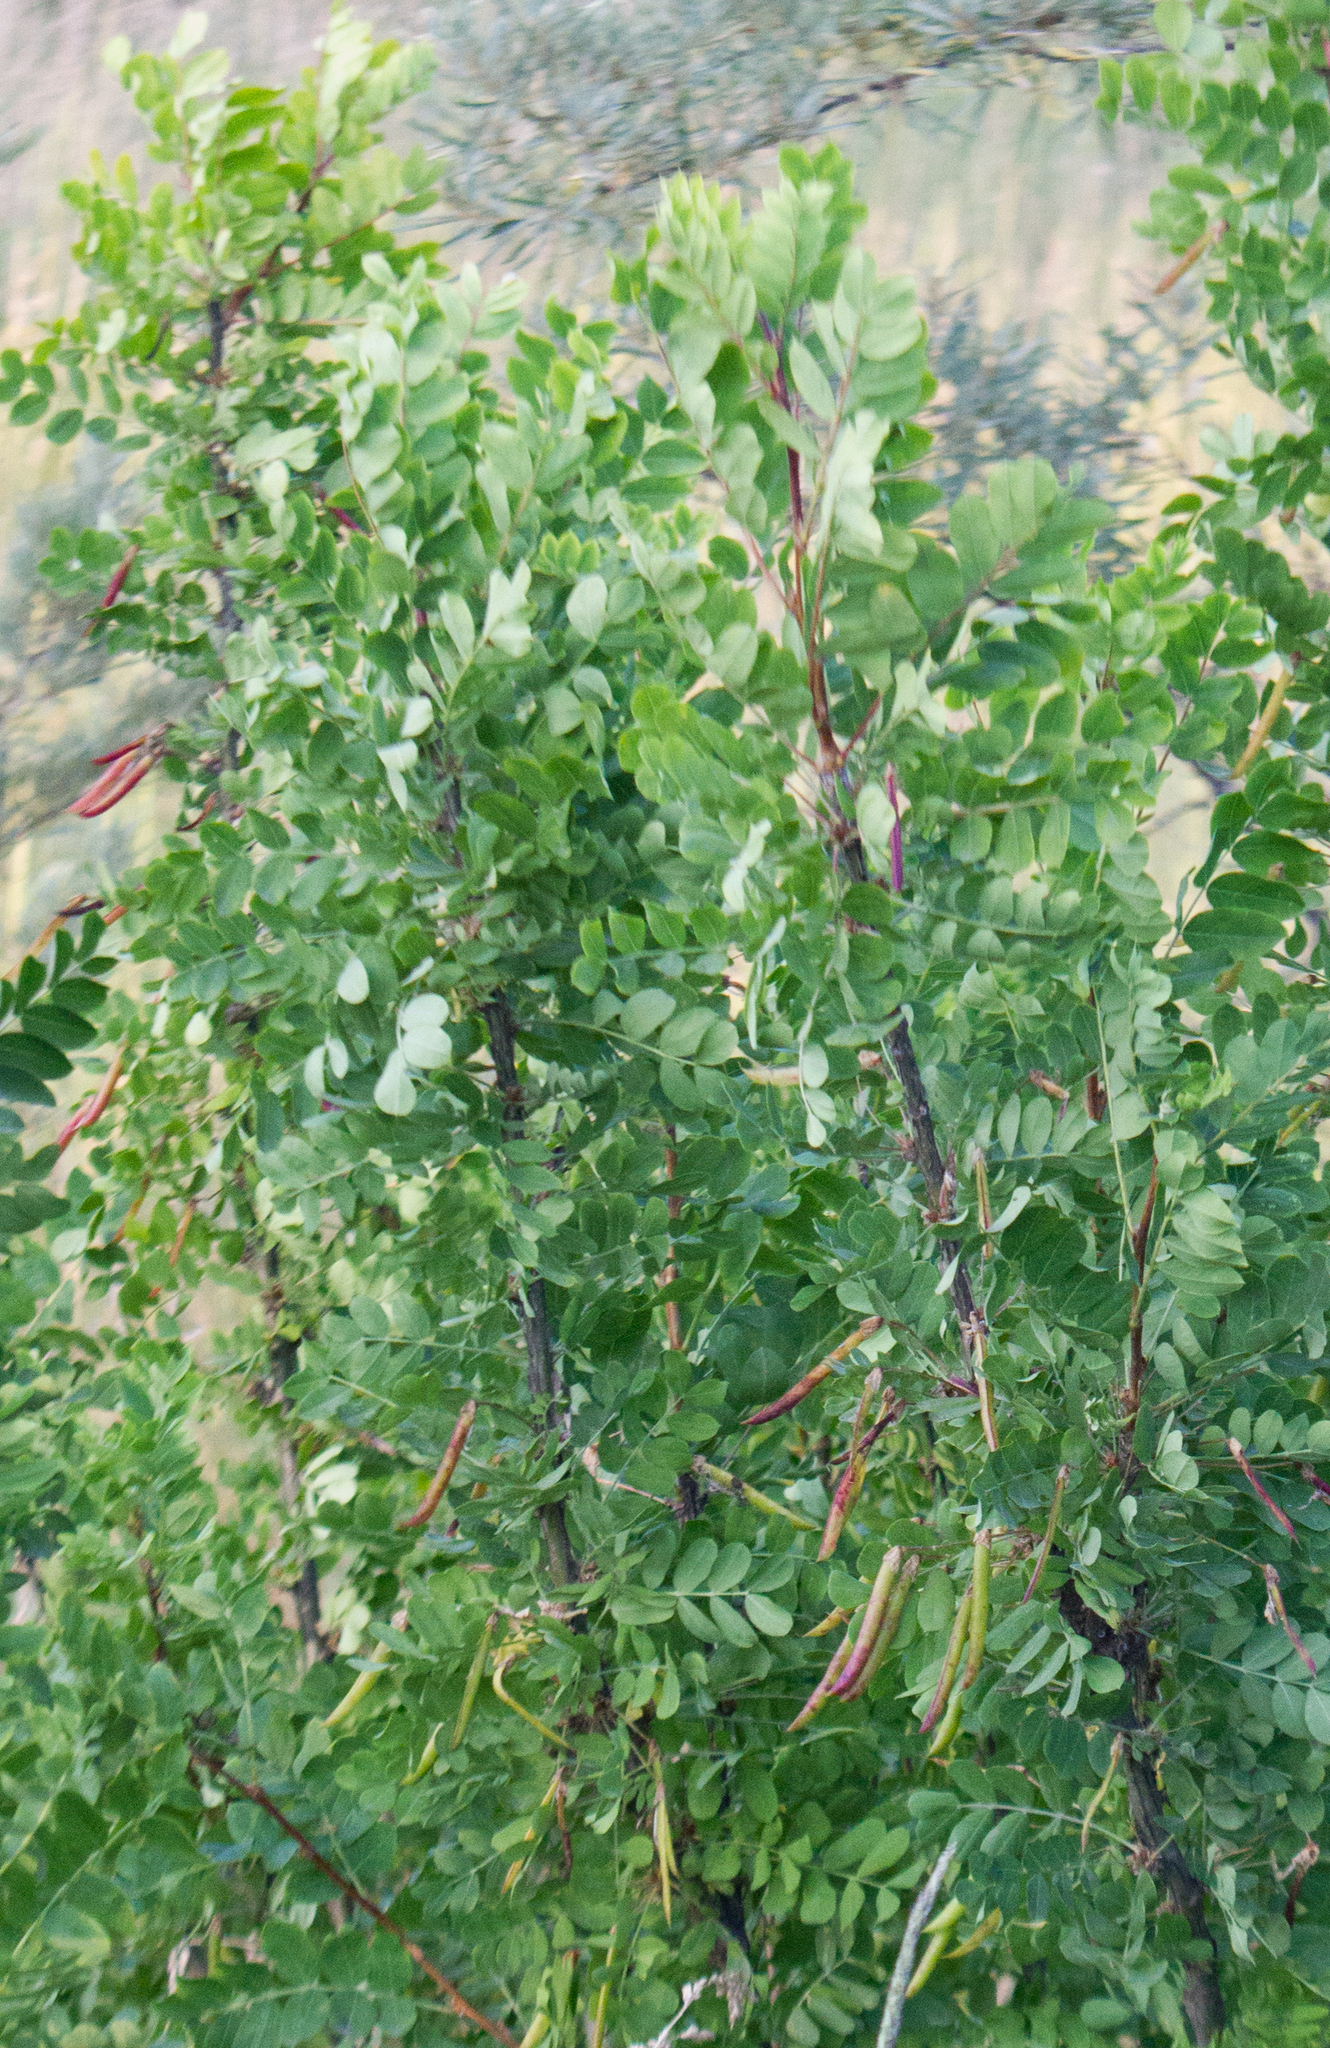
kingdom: Plantae
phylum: Tracheophyta
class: Magnoliopsida
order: Fabales
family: Fabaceae
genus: Caragana
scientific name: Caragana arborescens
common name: Siberian peashrub
